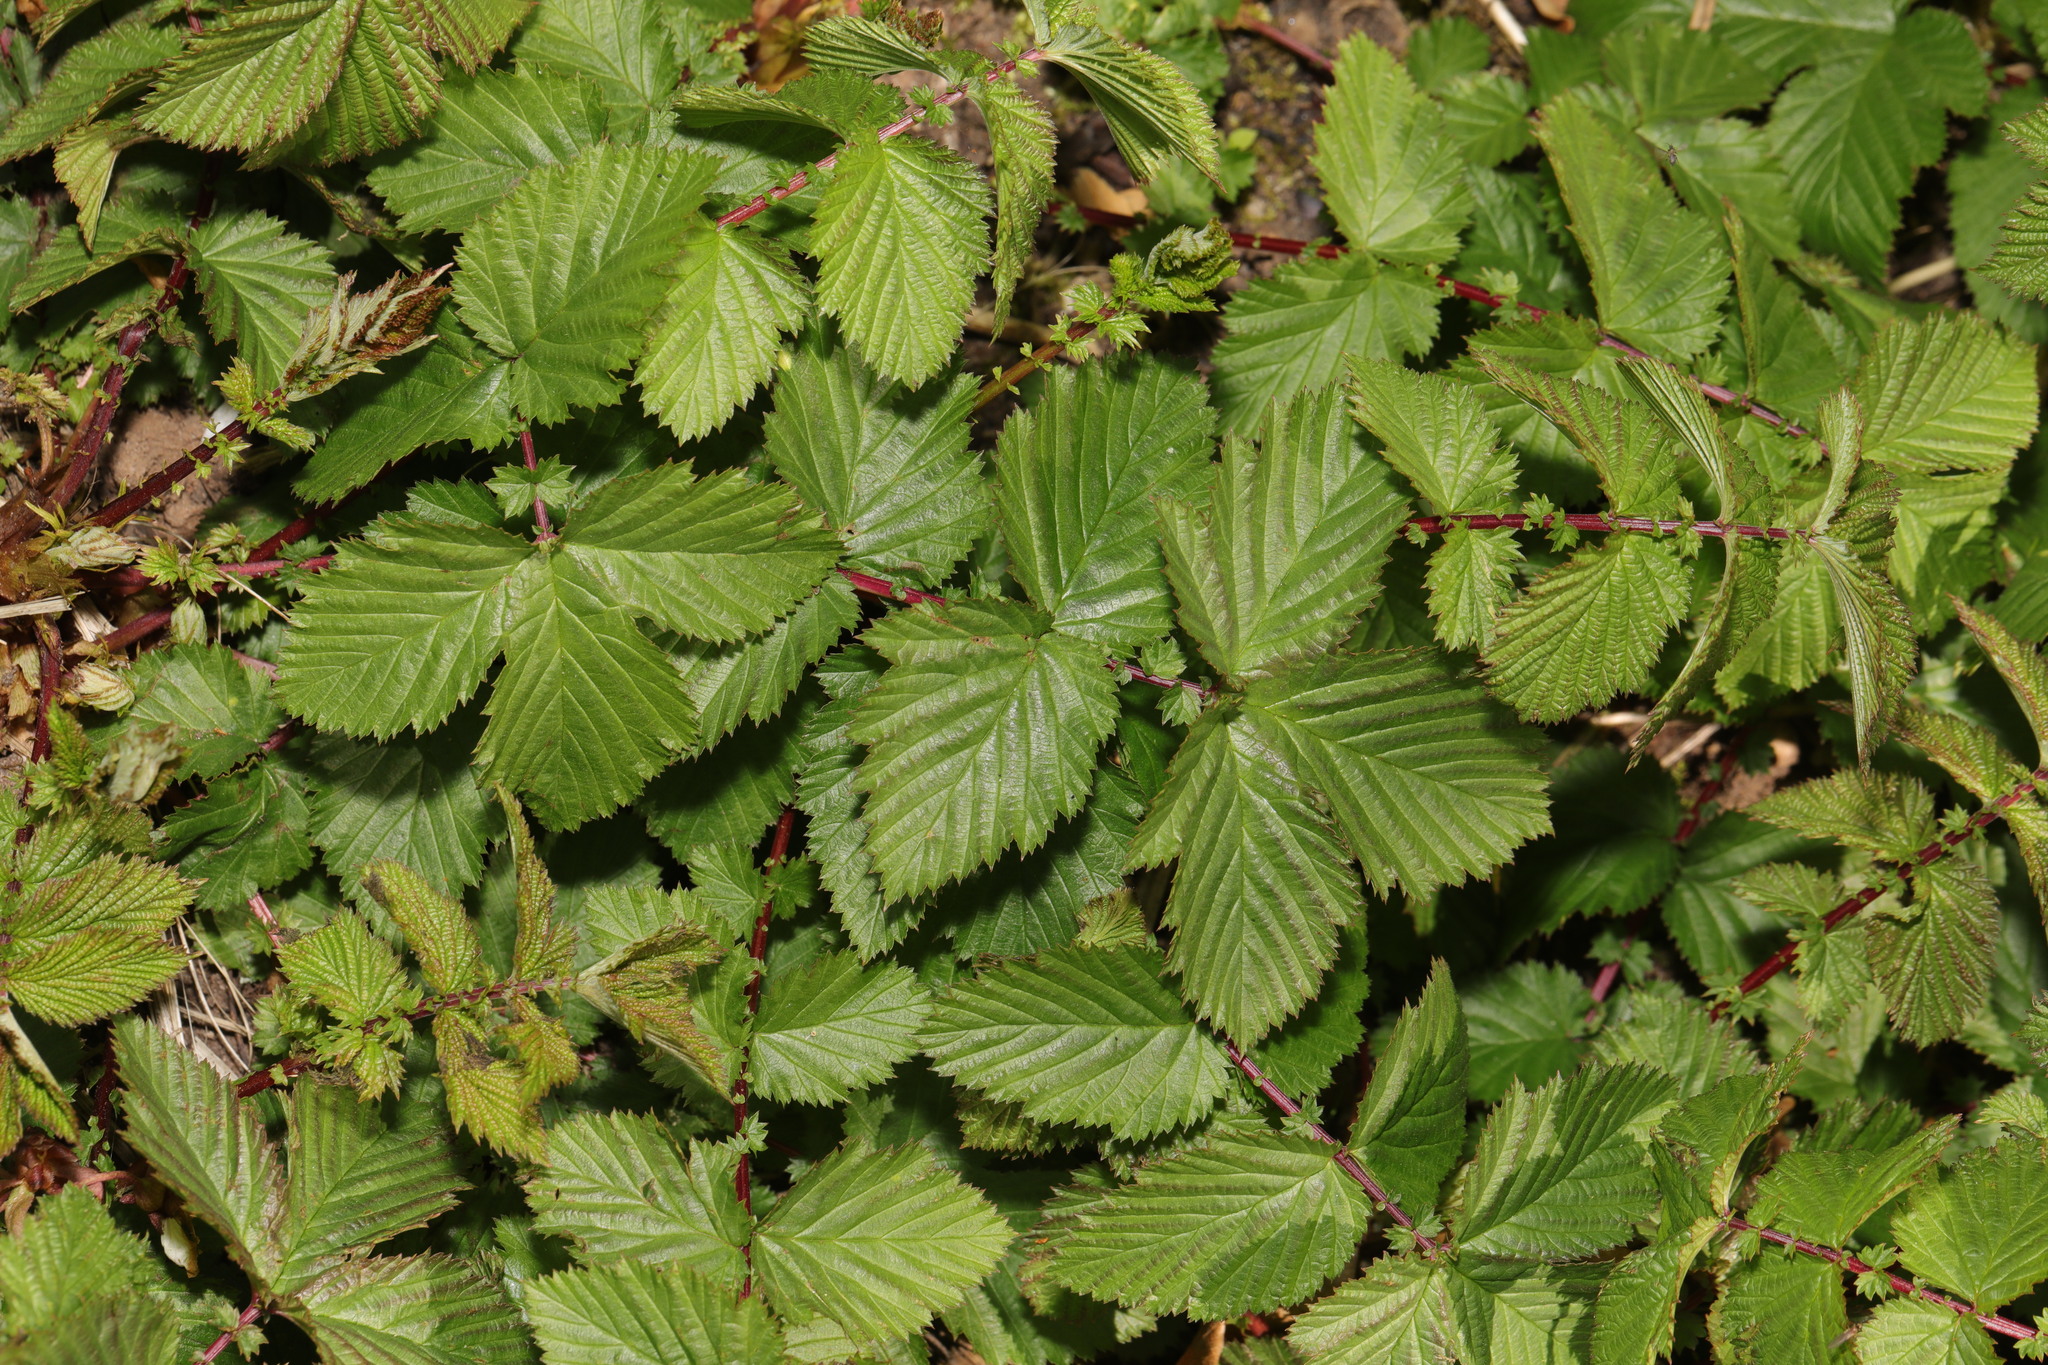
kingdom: Plantae
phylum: Tracheophyta
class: Magnoliopsida
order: Rosales
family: Rosaceae
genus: Filipendula
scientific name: Filipendula ulmaria
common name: Meadowsweet
